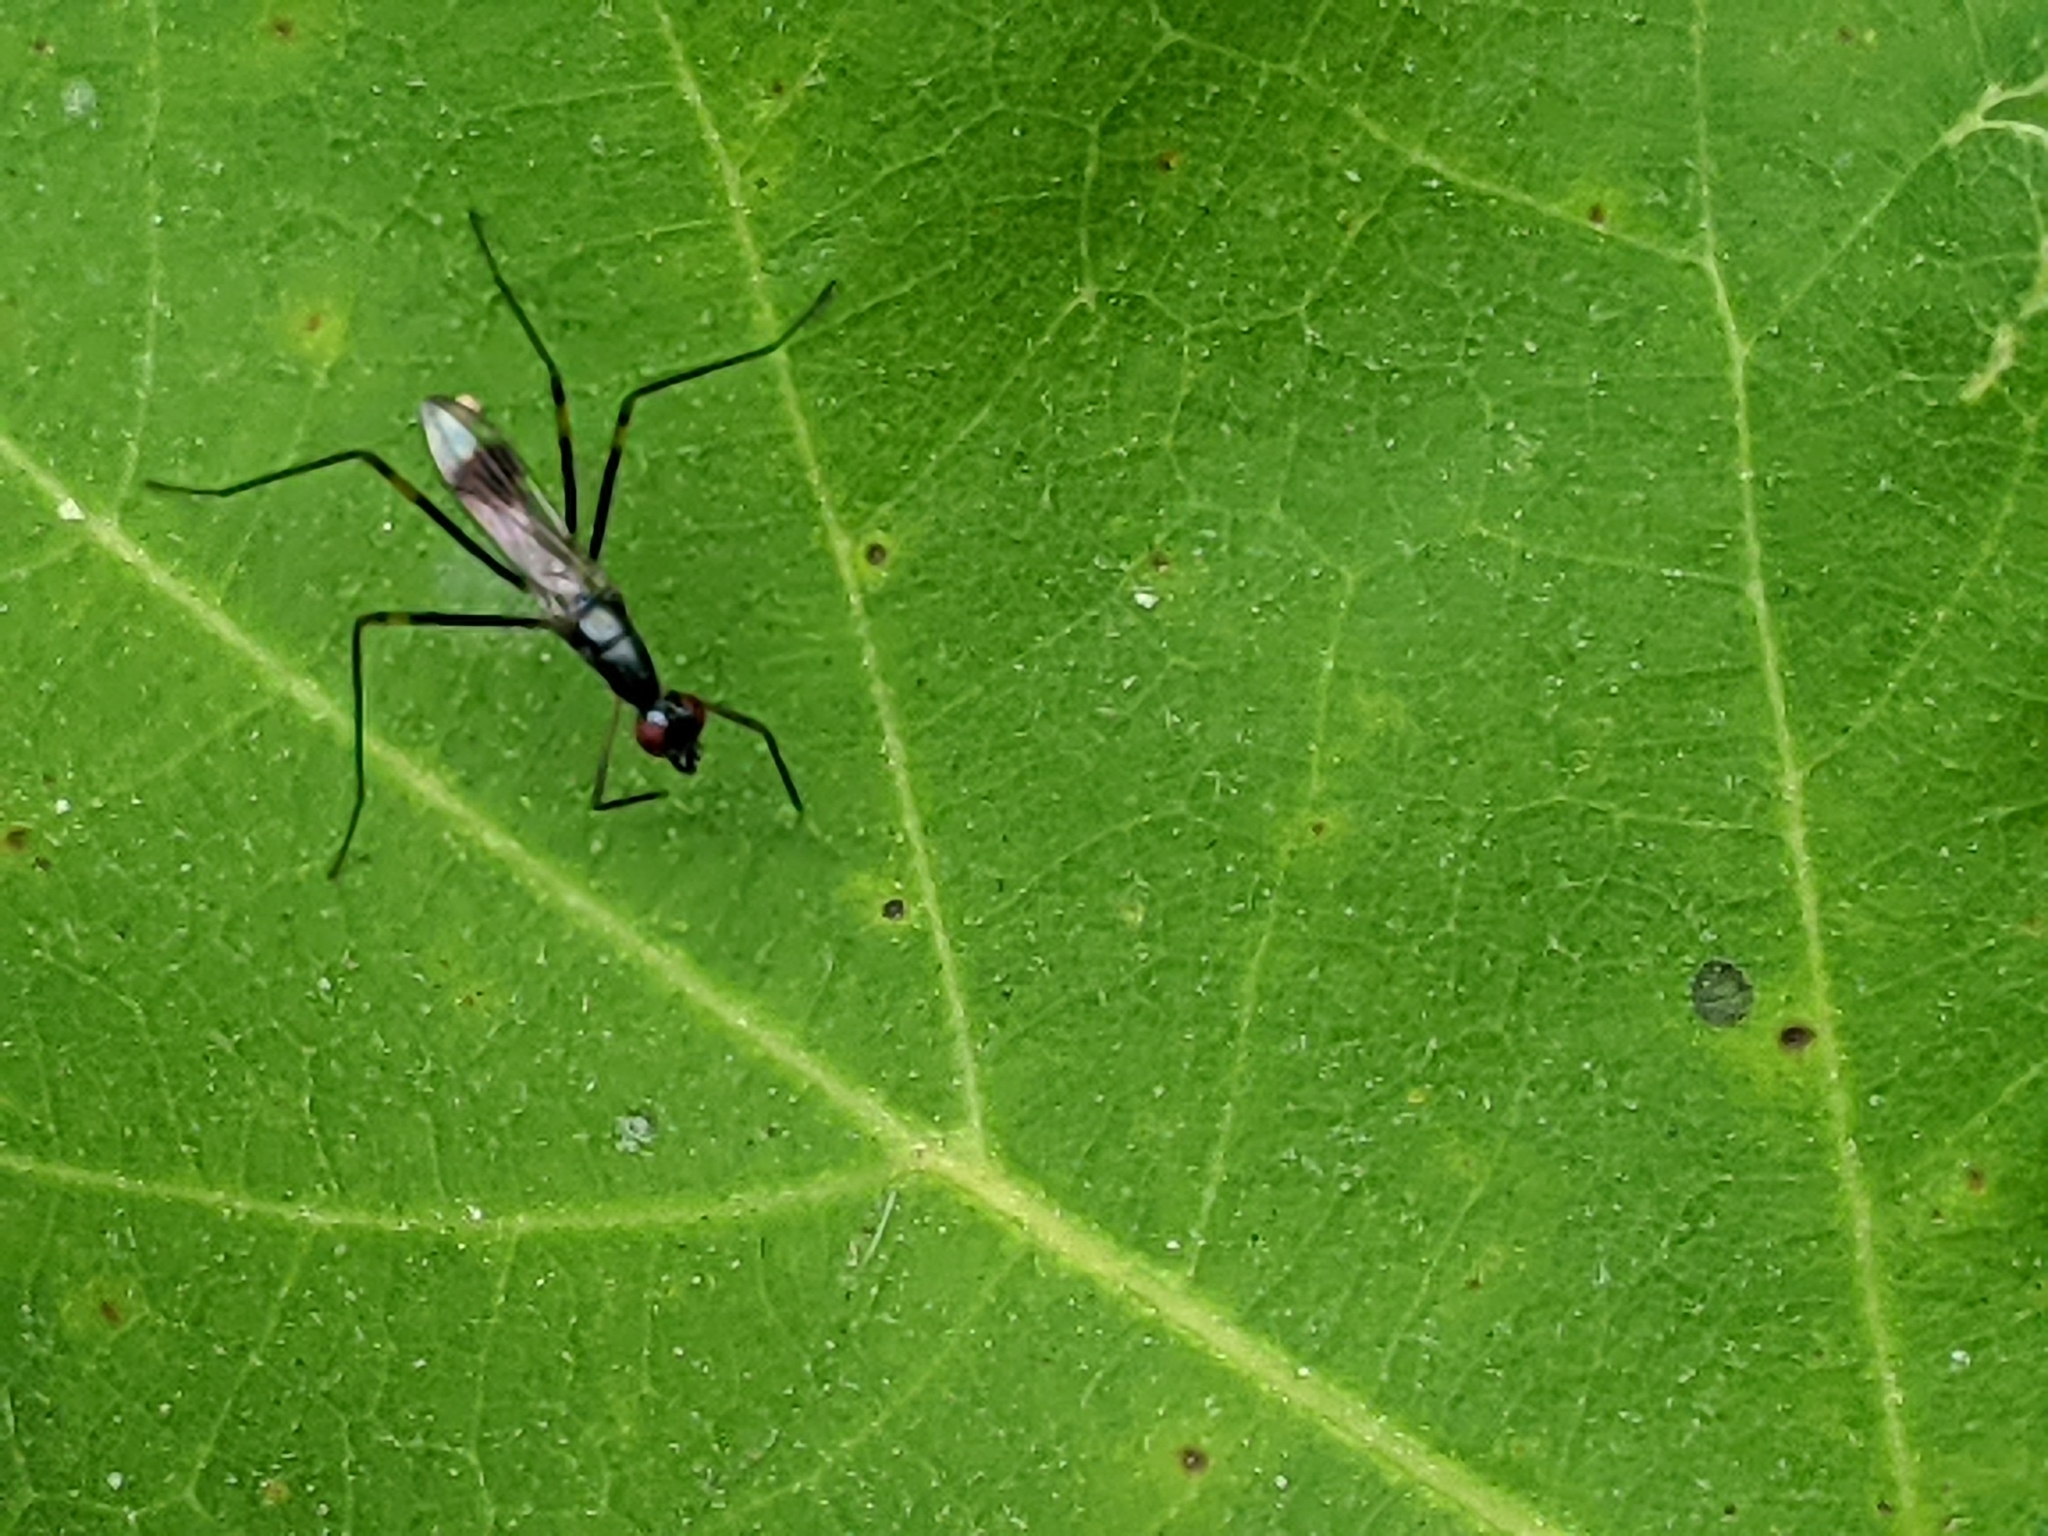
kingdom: Animalia
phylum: Arthropoda
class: Insecta
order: Diptera
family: Micropezidae
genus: Rainieria
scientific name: Rainieria antennaepes
